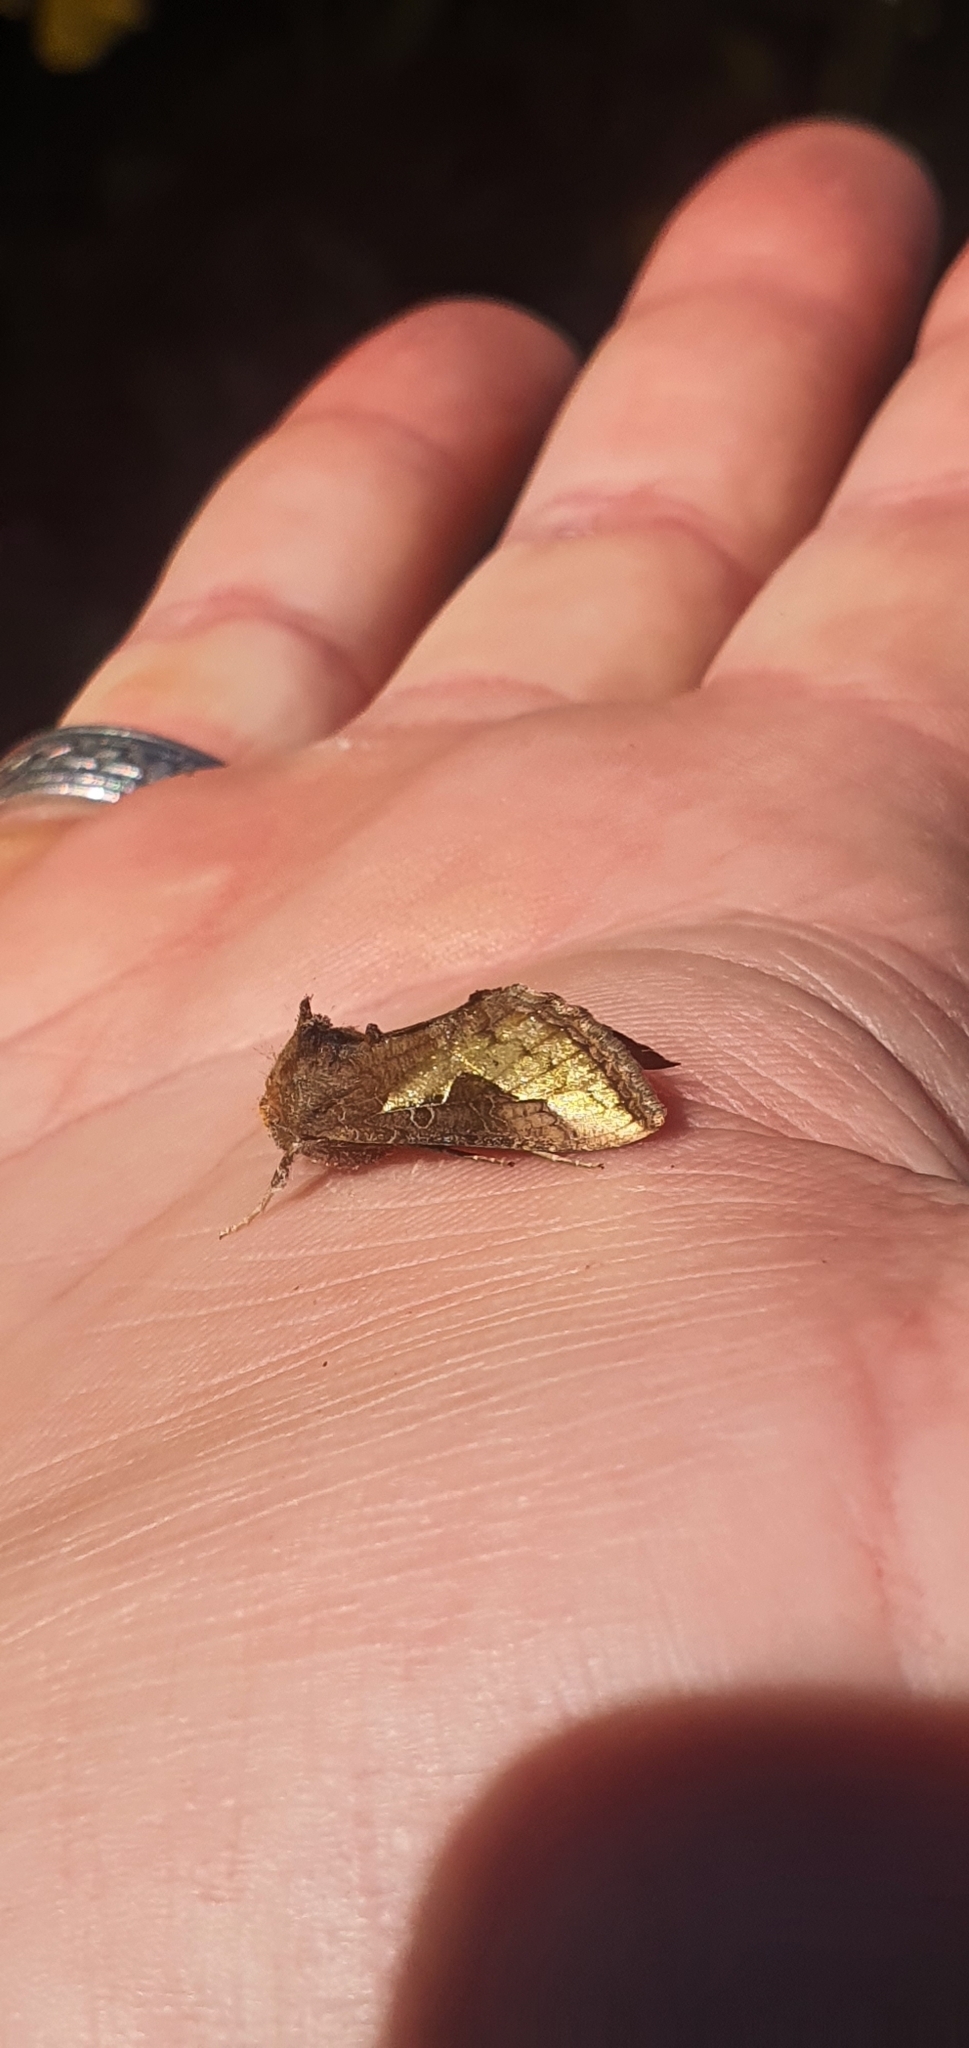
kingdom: Animalia
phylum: Arthropoda
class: Insecta
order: Lepidoptera
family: Noctuidae
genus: Thysanoplusia
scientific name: Thysanoplusia orichalcea
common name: Slender burnished brass, golden plusia
